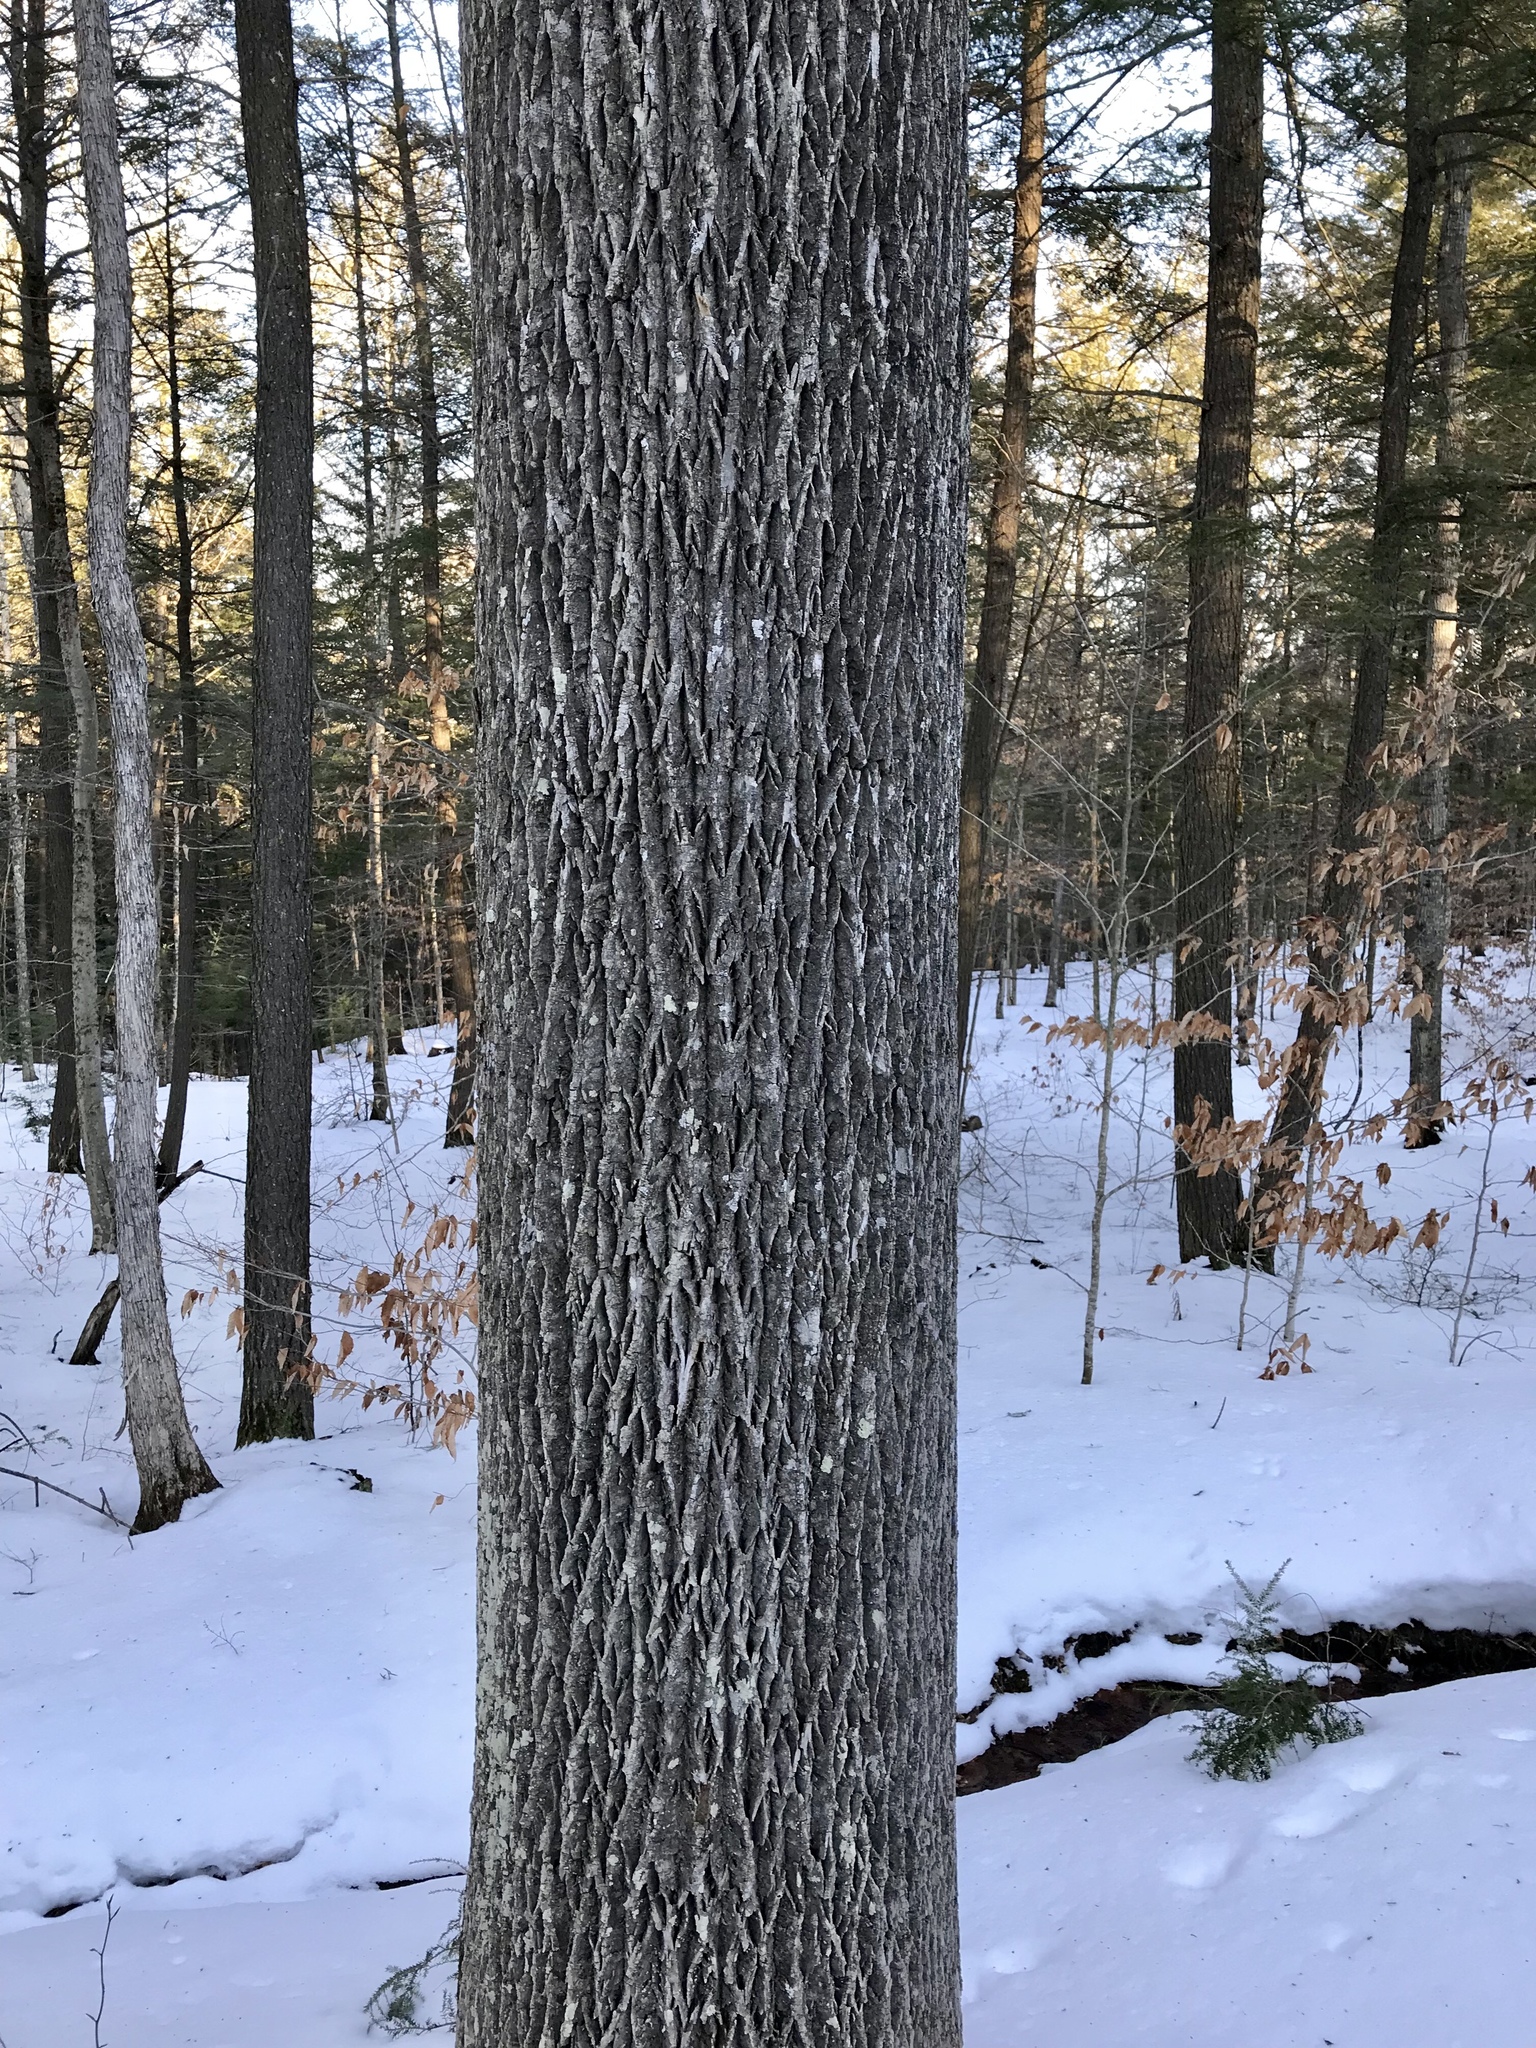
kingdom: Plantae
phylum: Tracheophyta
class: Magnoliopsida
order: Lamiales
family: Oleaceae
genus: Fraxinus
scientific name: Fraxinus americana
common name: White ash
